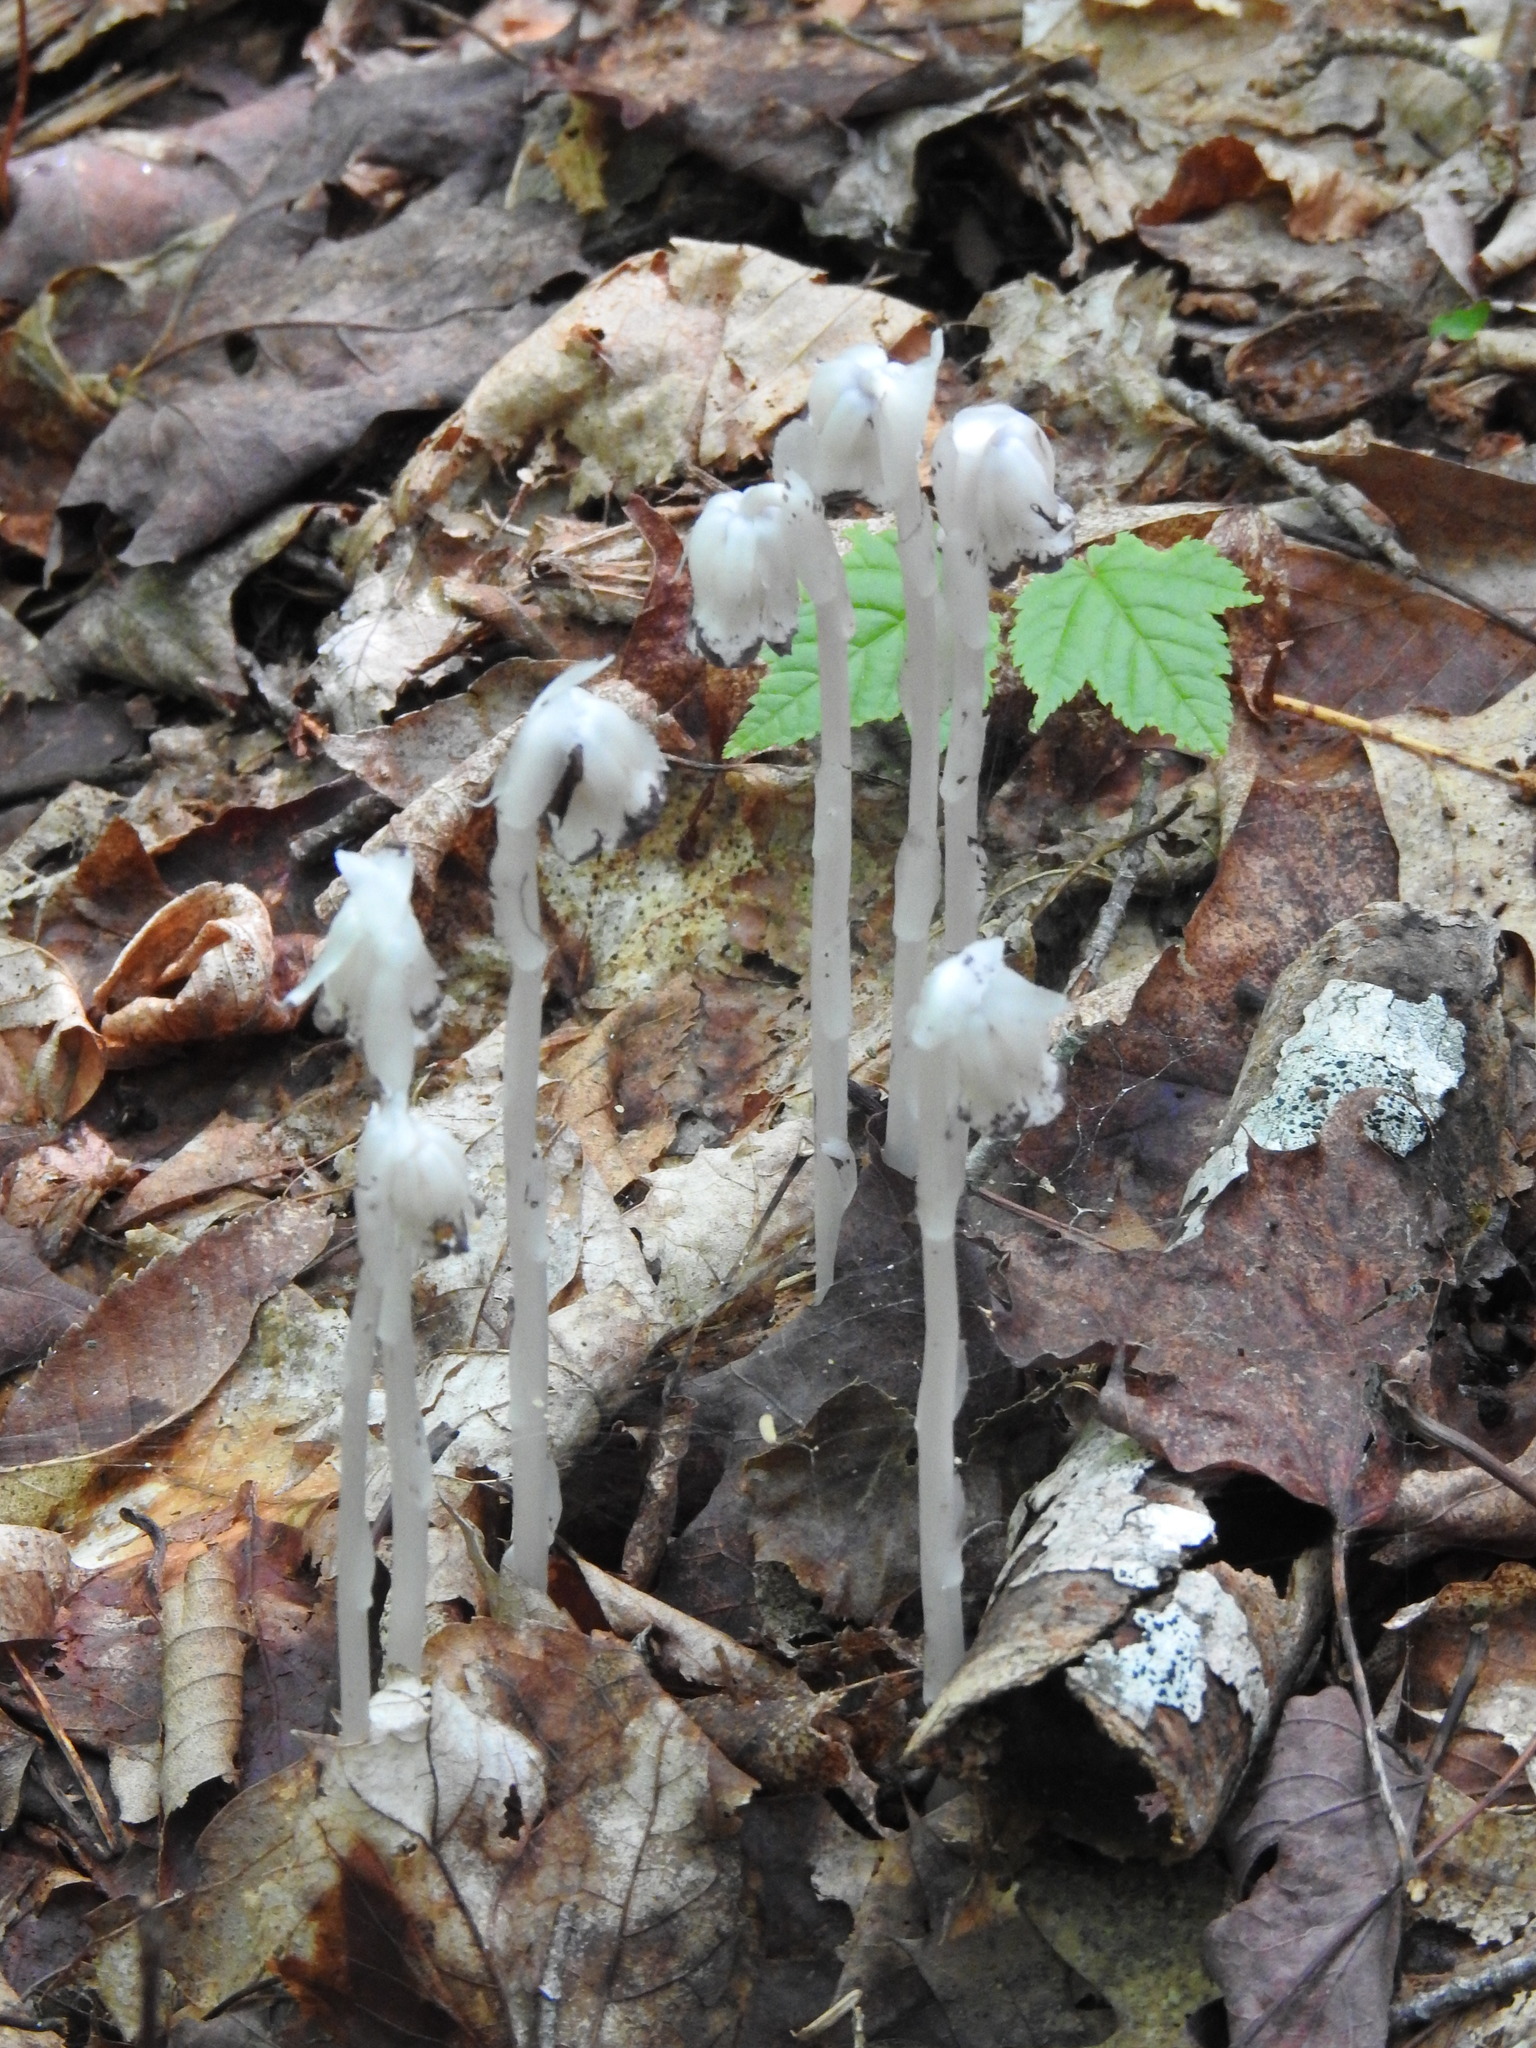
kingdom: Plantae
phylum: Tracheophyta
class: Magnoliopsida
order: Ericales
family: Ericaceae
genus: Monotropa
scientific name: Monotropa uniflora
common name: Convulsion root
